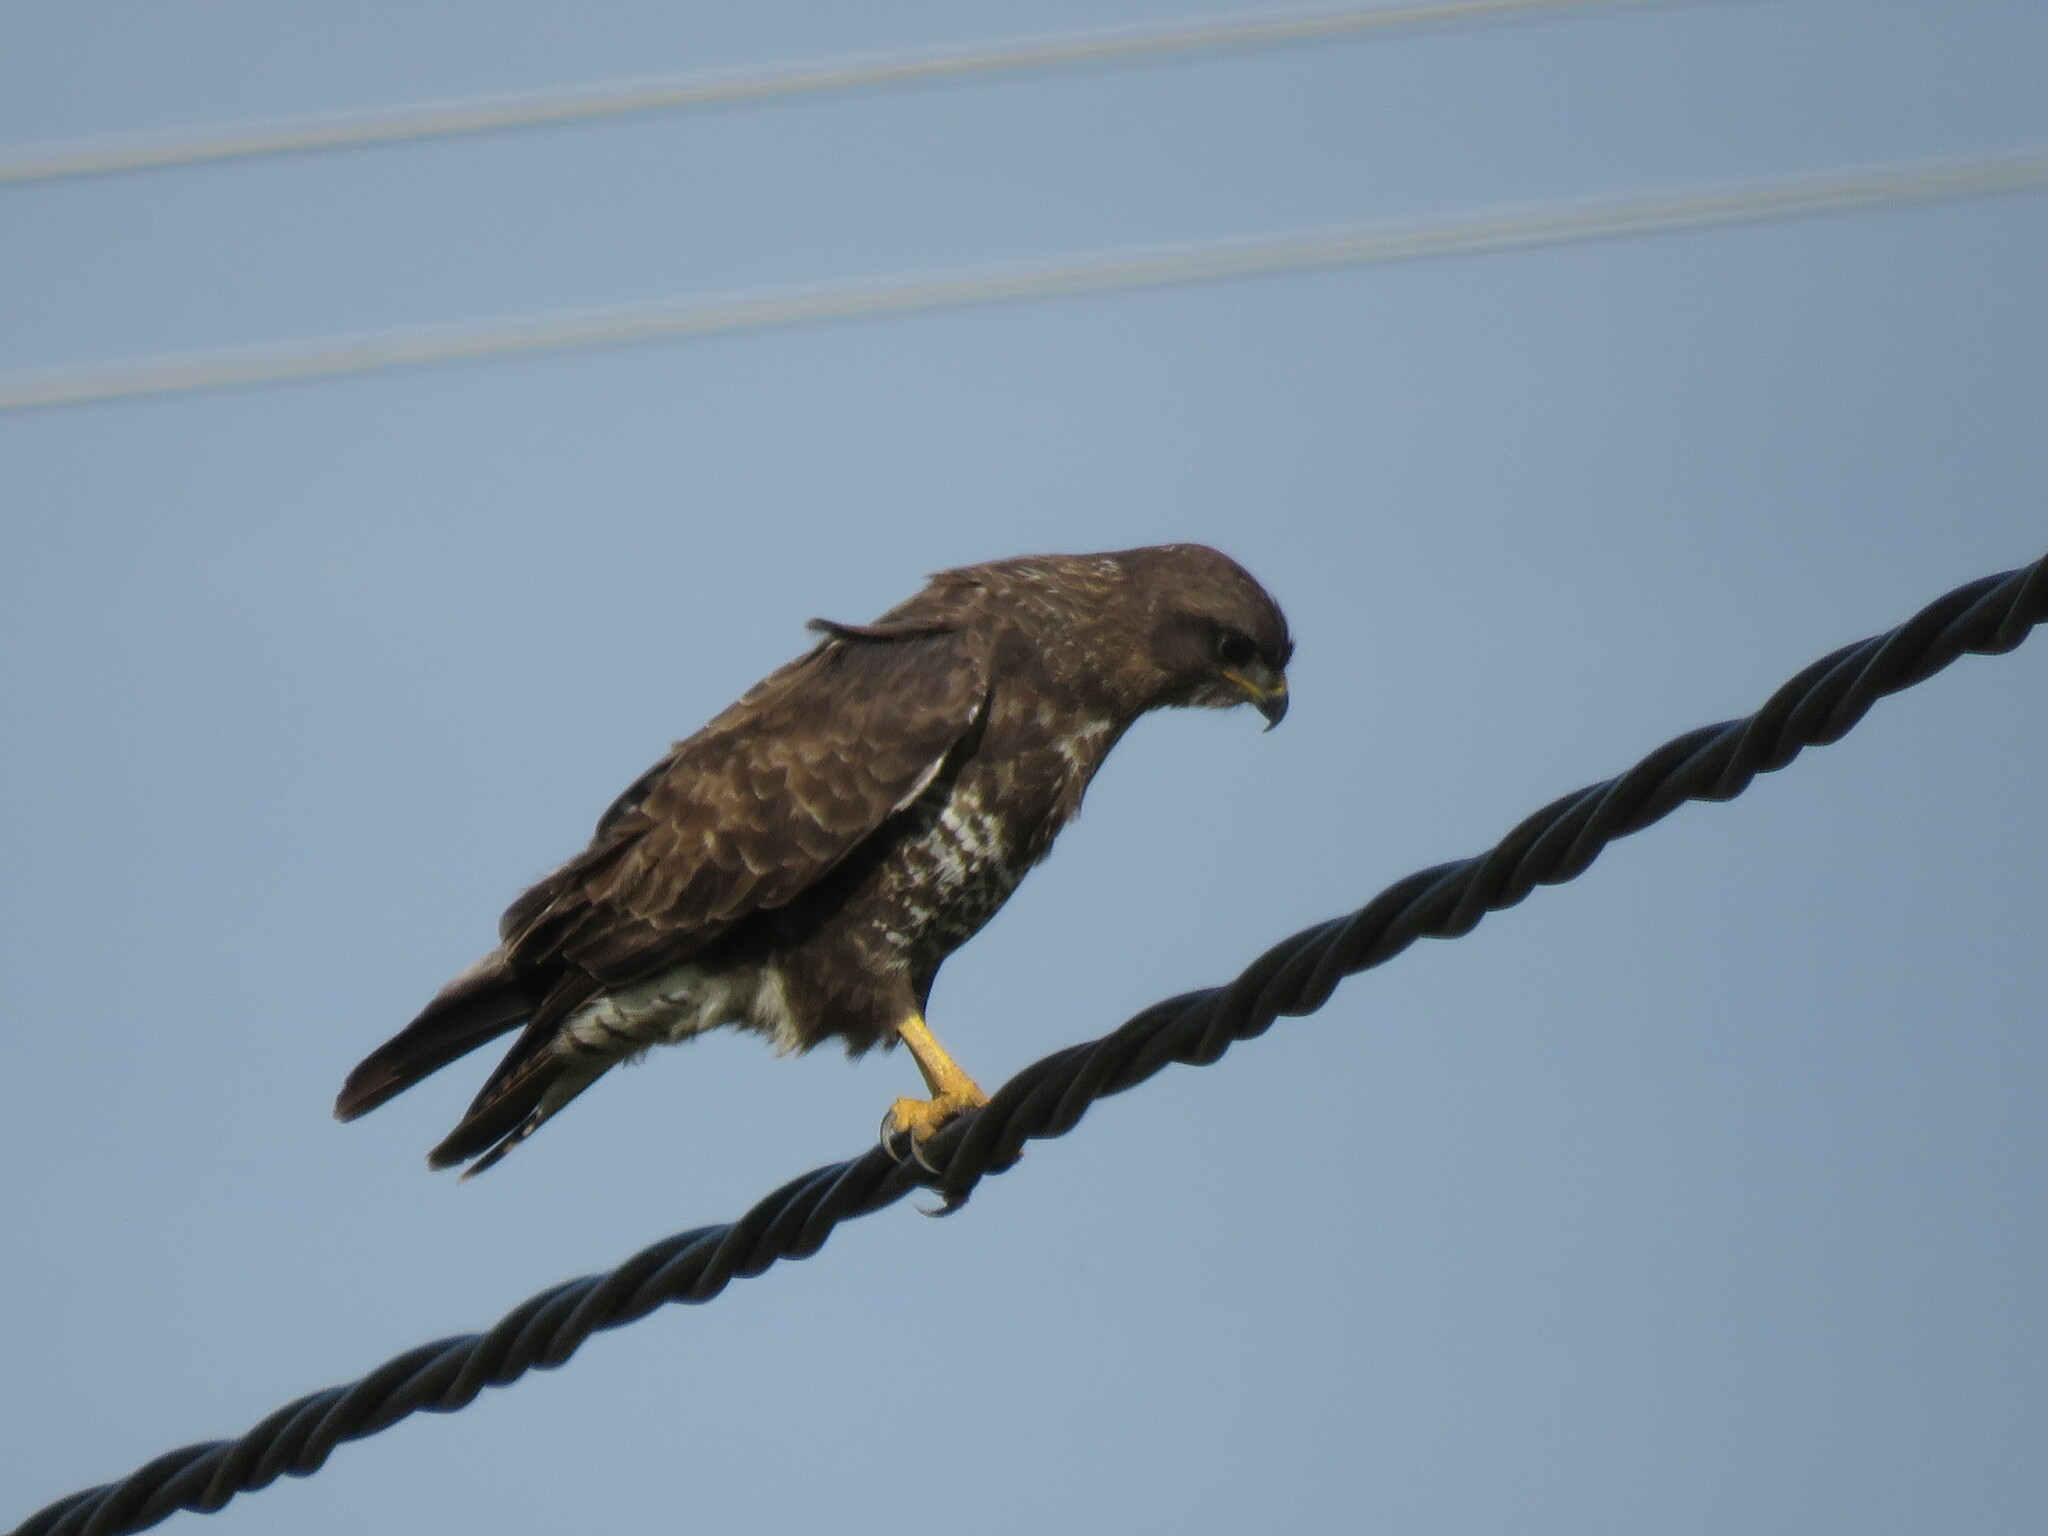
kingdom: Animalia
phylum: Chordata
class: Aves
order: Accipitriformes
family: Accipitridae
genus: Buteo
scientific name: Buteo buteo
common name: Common buzzard
